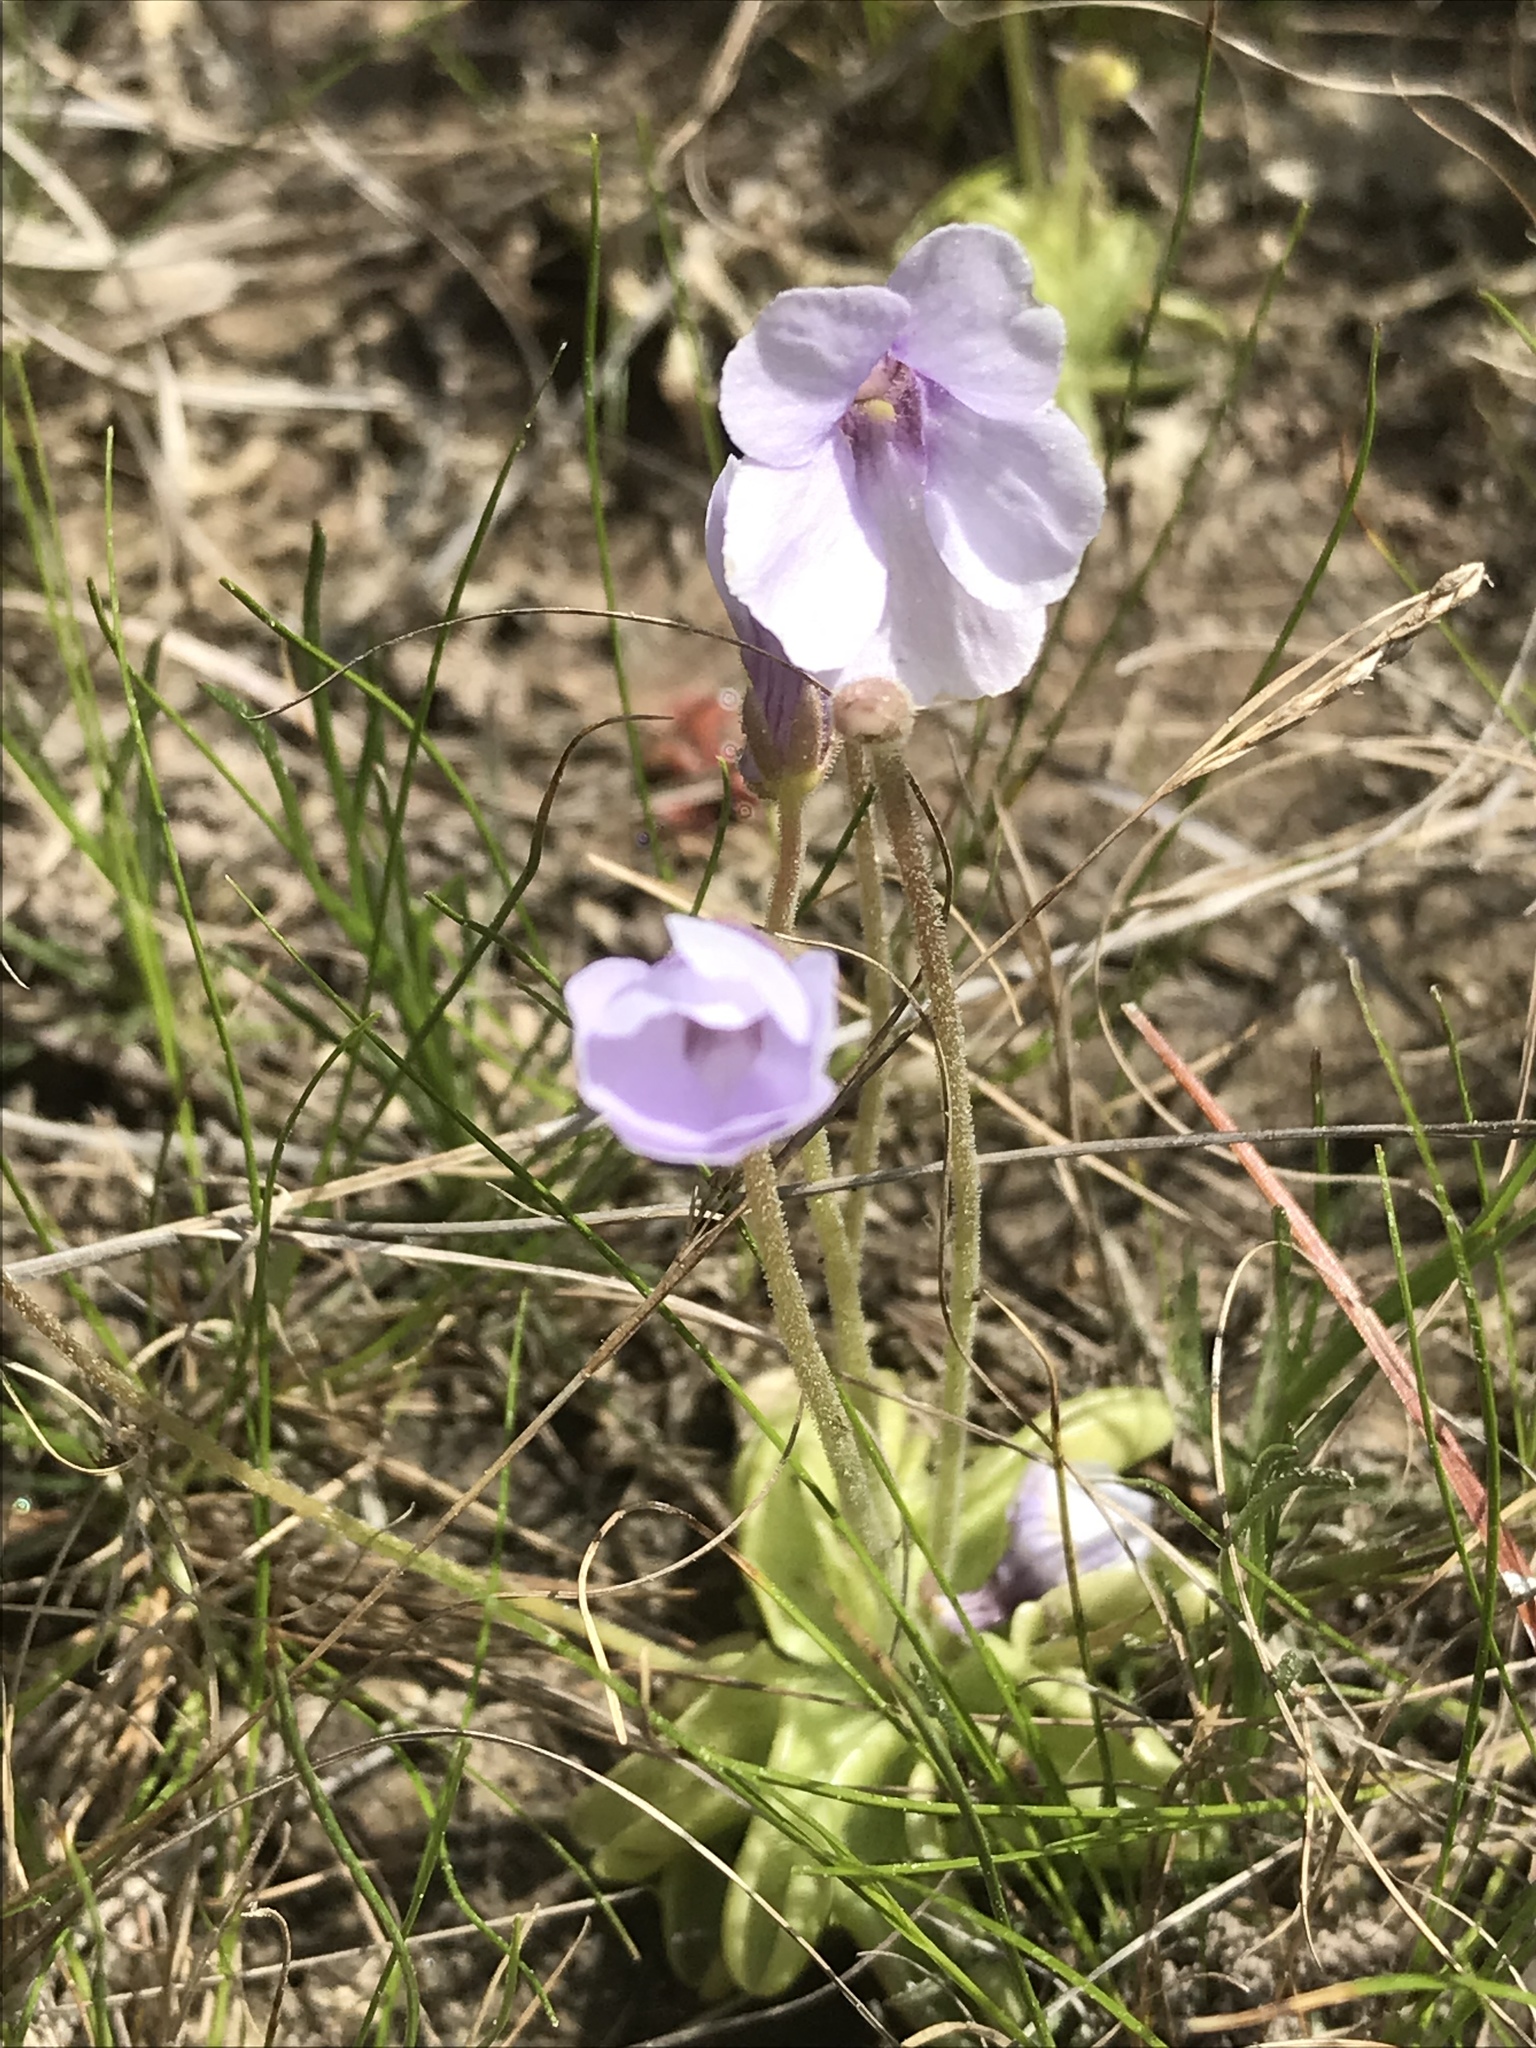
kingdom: Plantae
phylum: Tracheophyta
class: Magnoliopsida
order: Lamiales
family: Lentibulariaceae
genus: Pinguicula
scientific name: Pinguicula pumila
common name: Small butterwort
